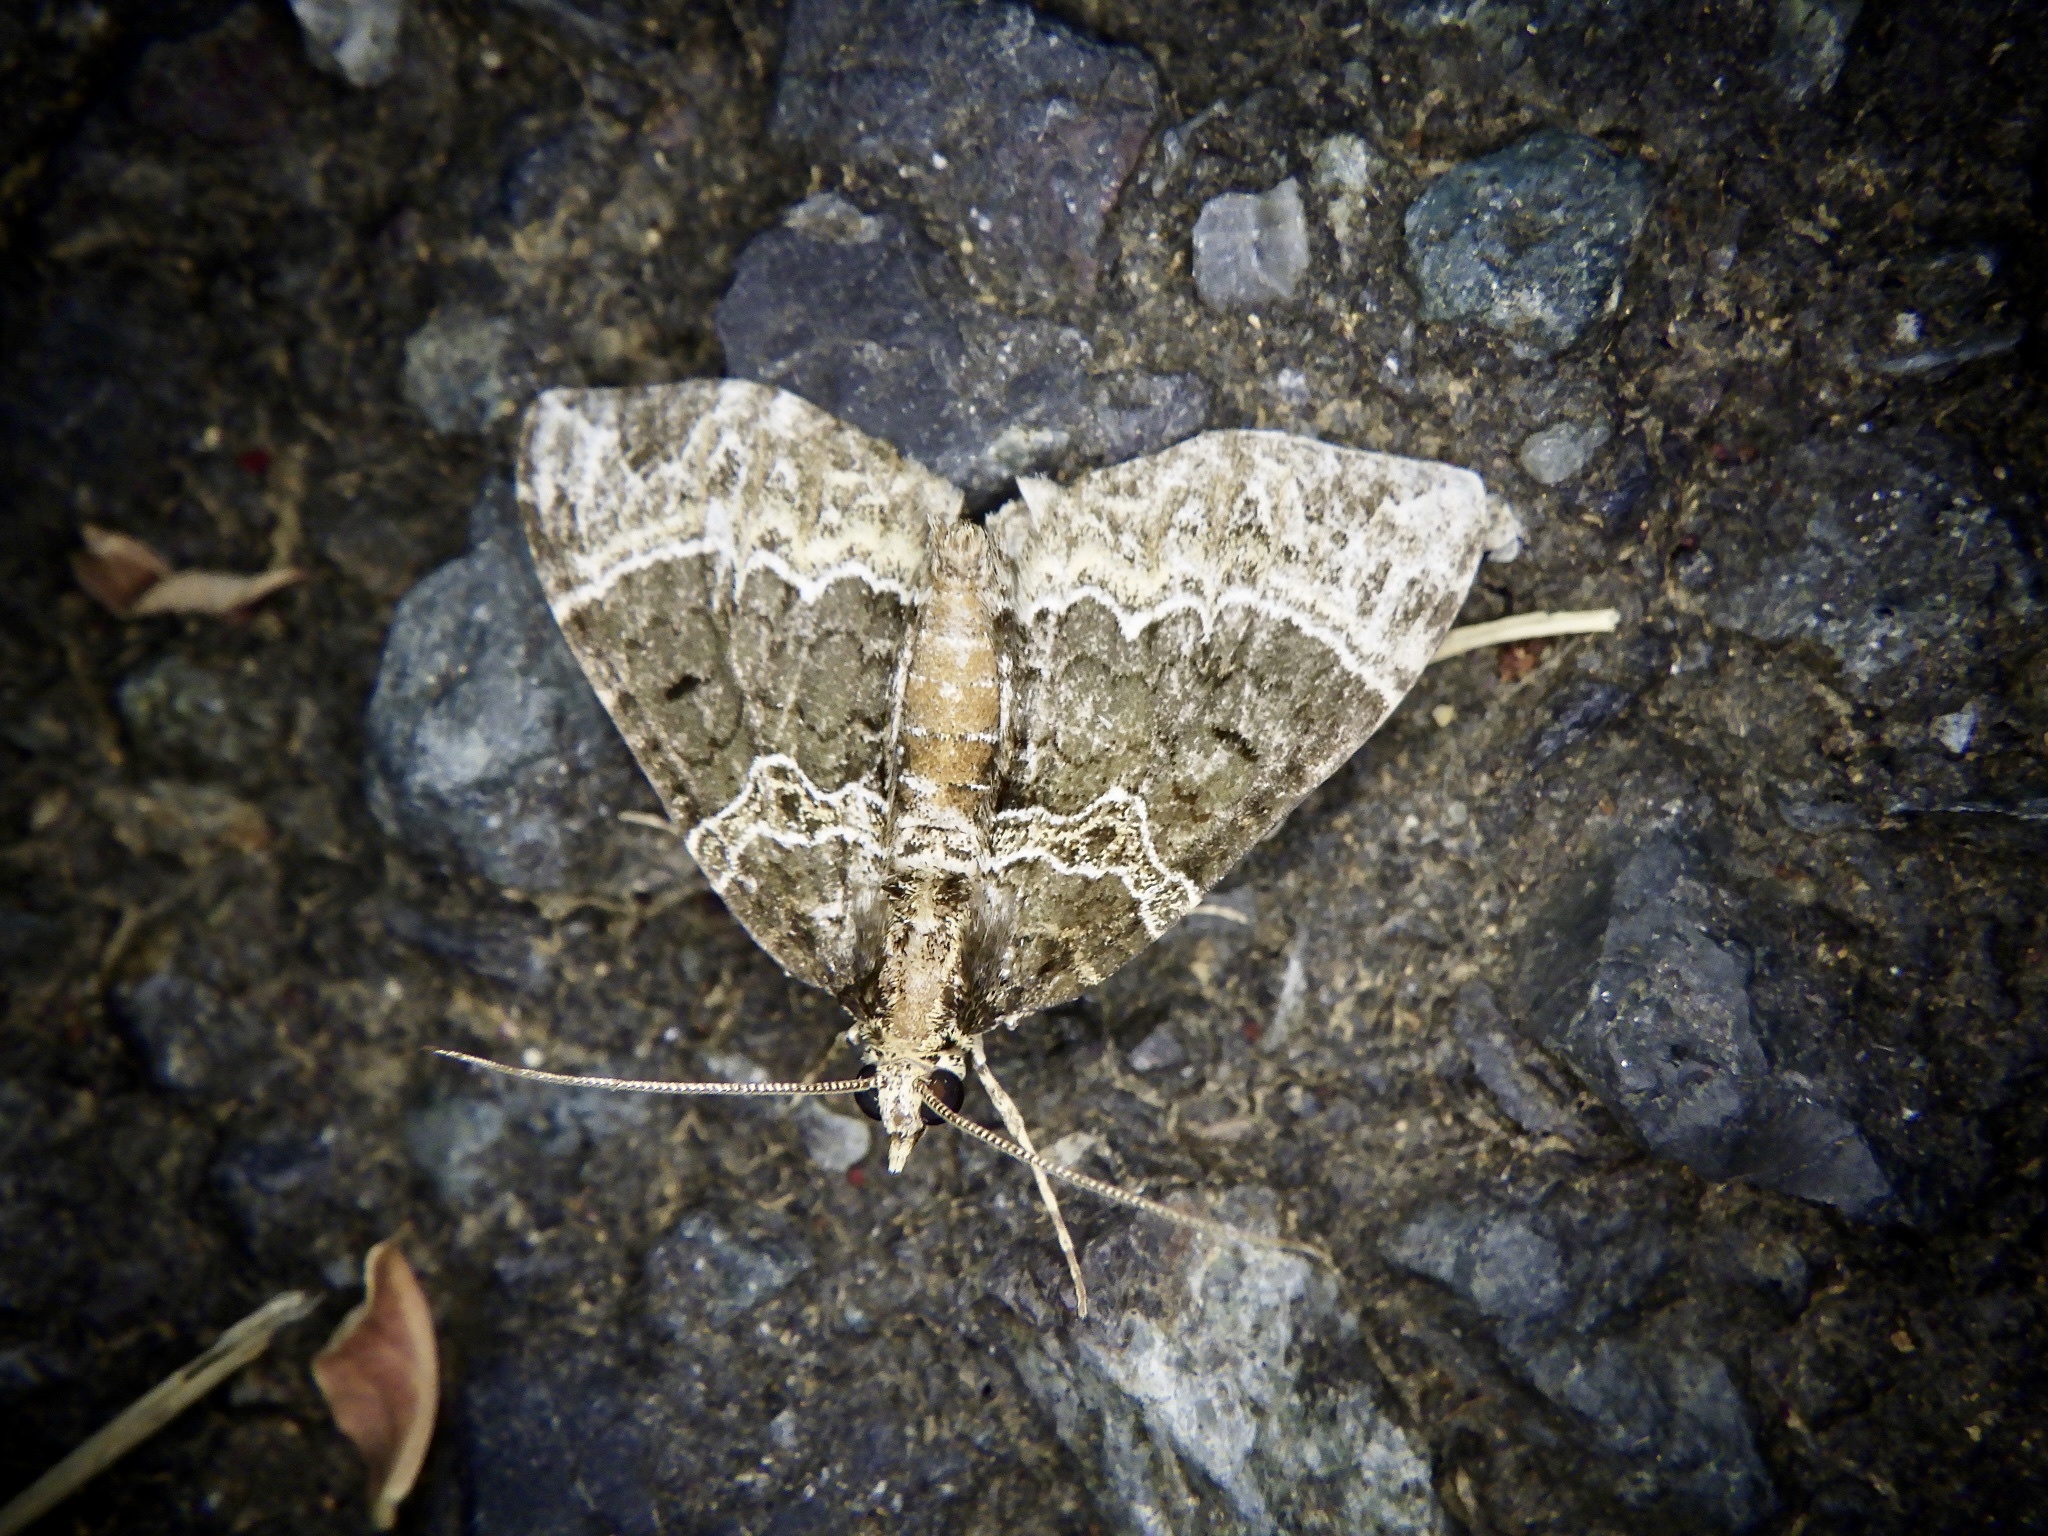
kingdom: Animalia
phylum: Arthropoda
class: Insecta
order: Lepidoptera
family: Geometridae
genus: Ecliptopera
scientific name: Ecliptopera umbrosaria
